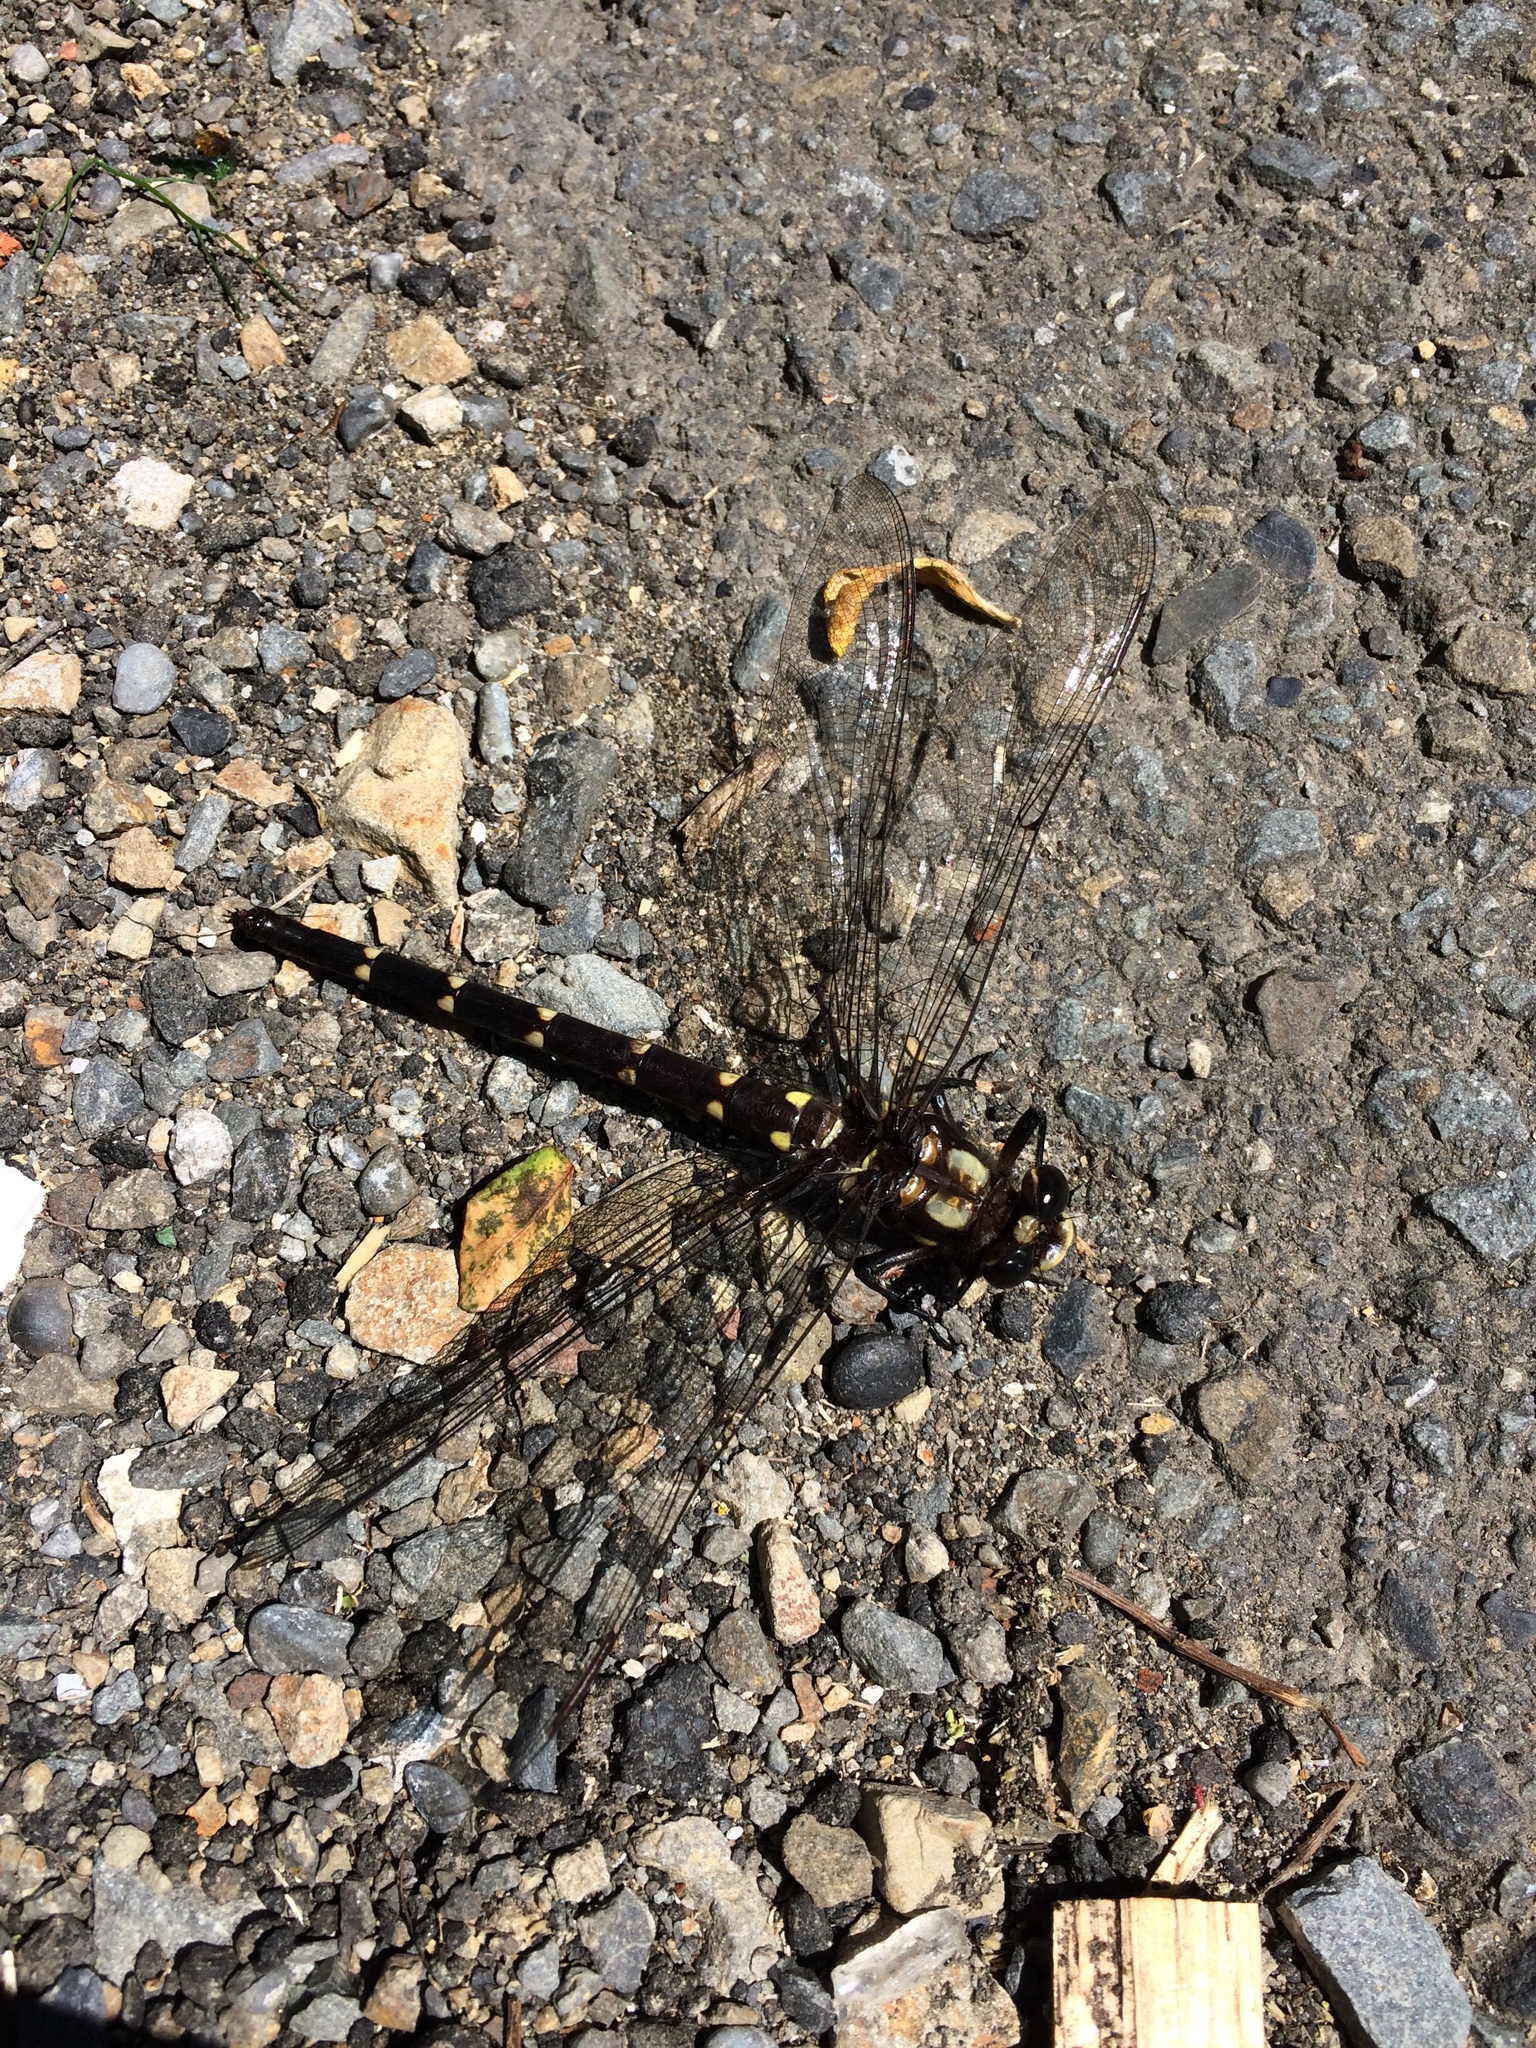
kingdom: Animalia
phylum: Arthropoda
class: Insecta
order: Odonata
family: Petaluridae
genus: Uropetala
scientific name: Uropetala carovei
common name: Bush giant dragonfly
